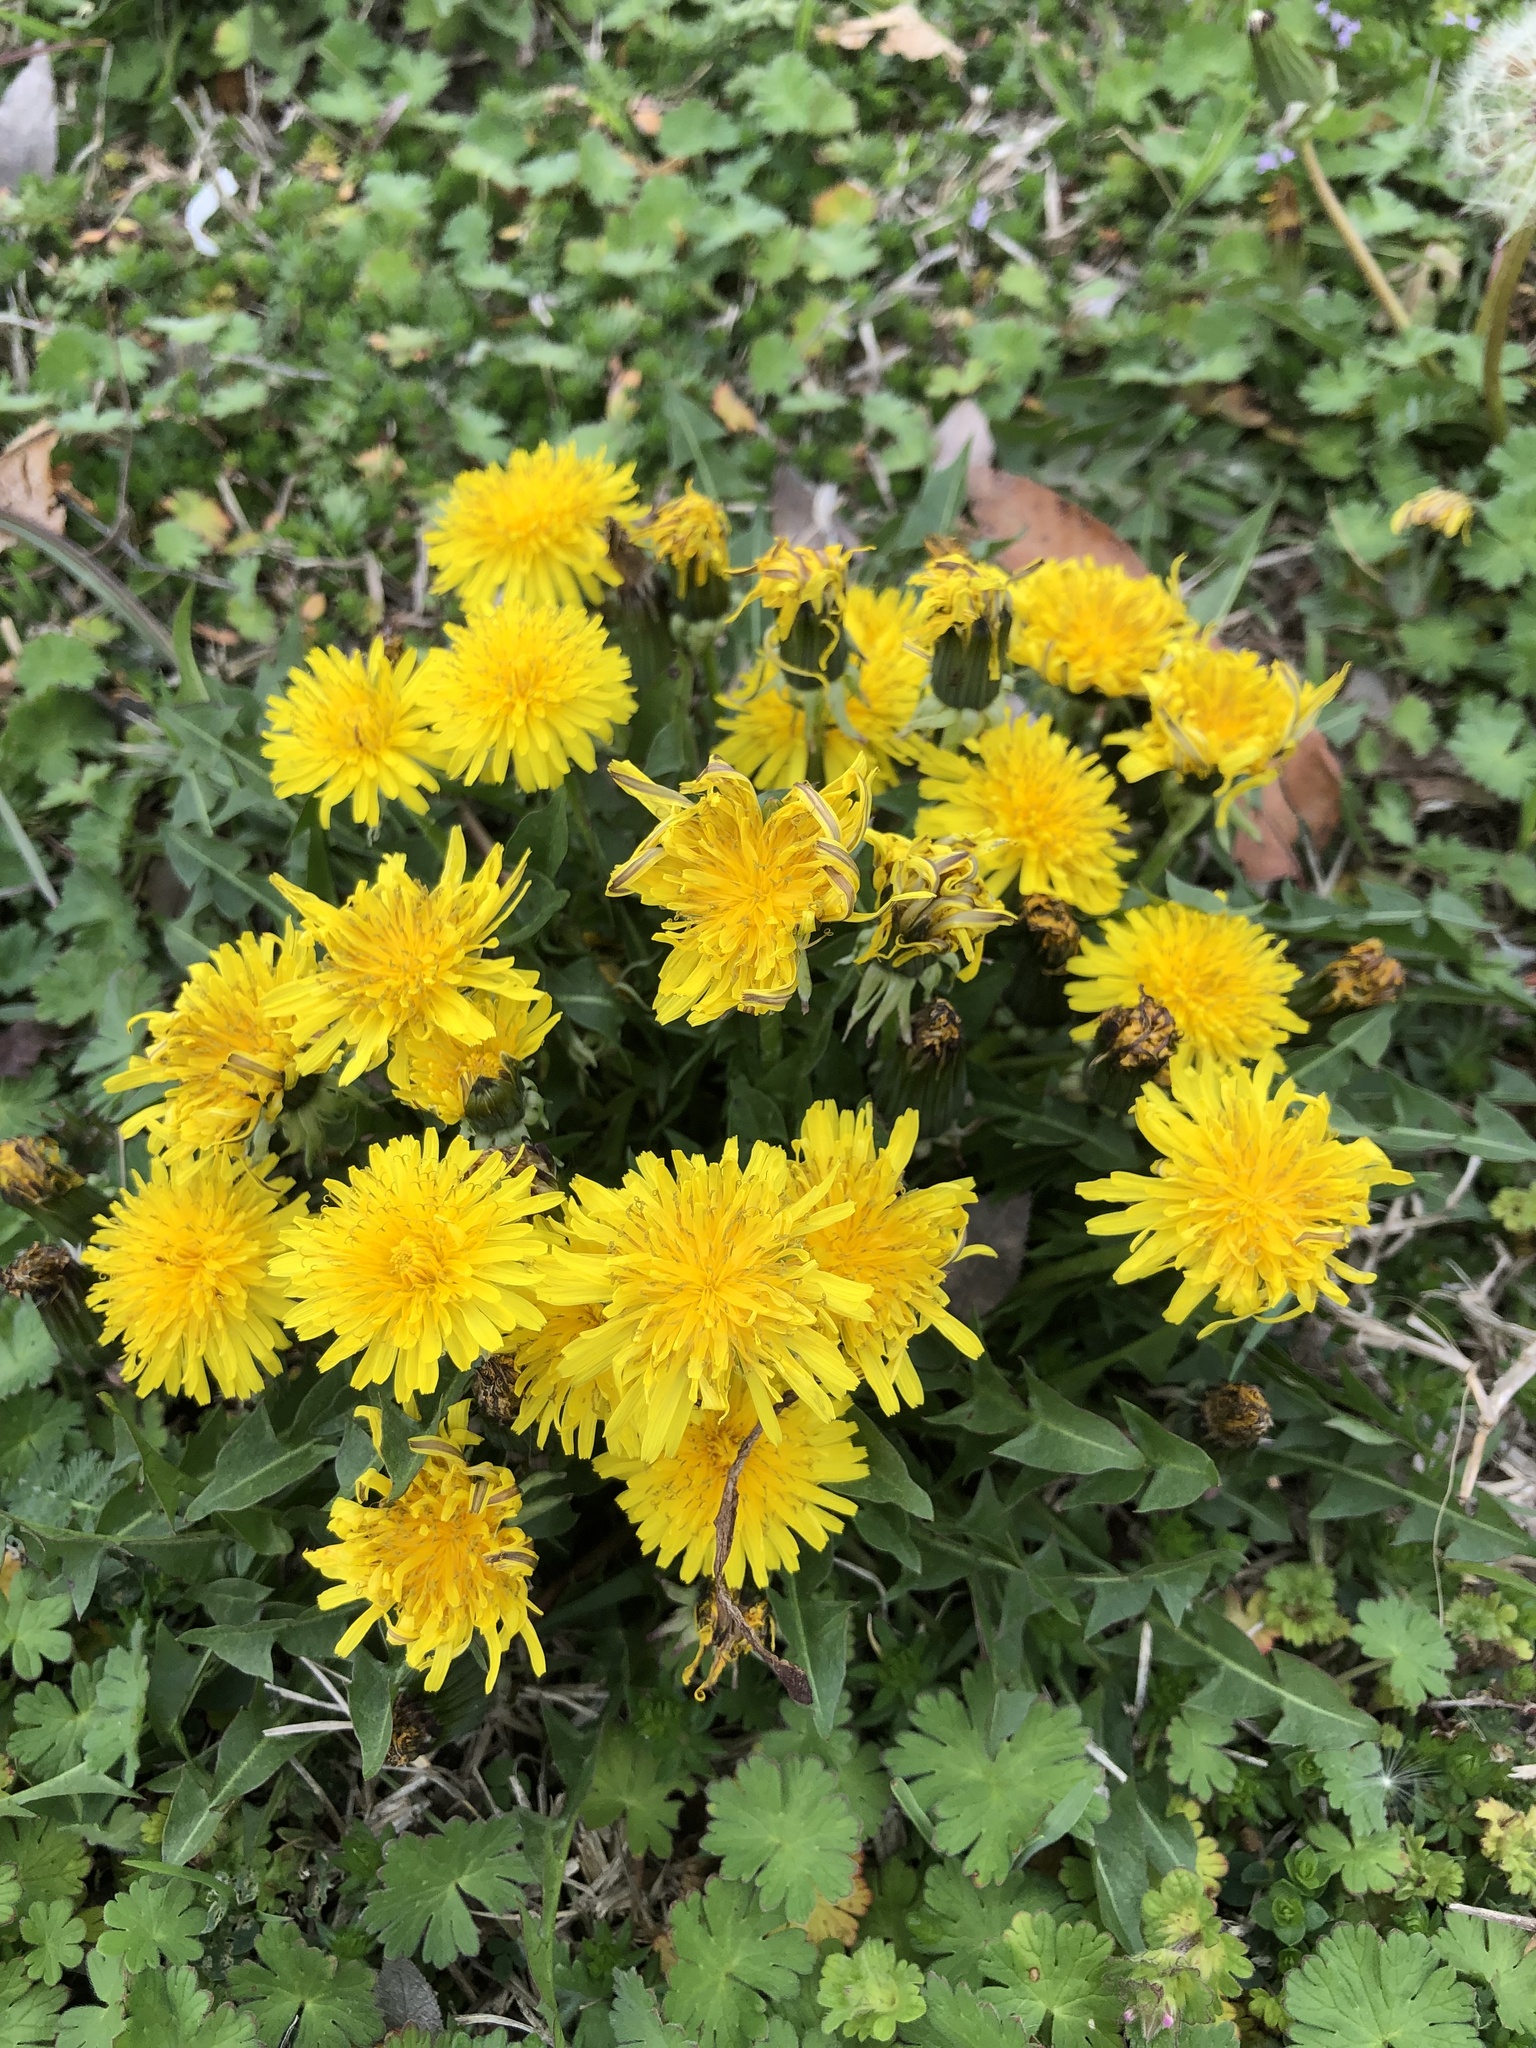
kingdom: Plantae
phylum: Tracheophyta
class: Magnoliopsida
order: Asterales
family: Asteraceae
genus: Taraxacum
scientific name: Taraxacum
